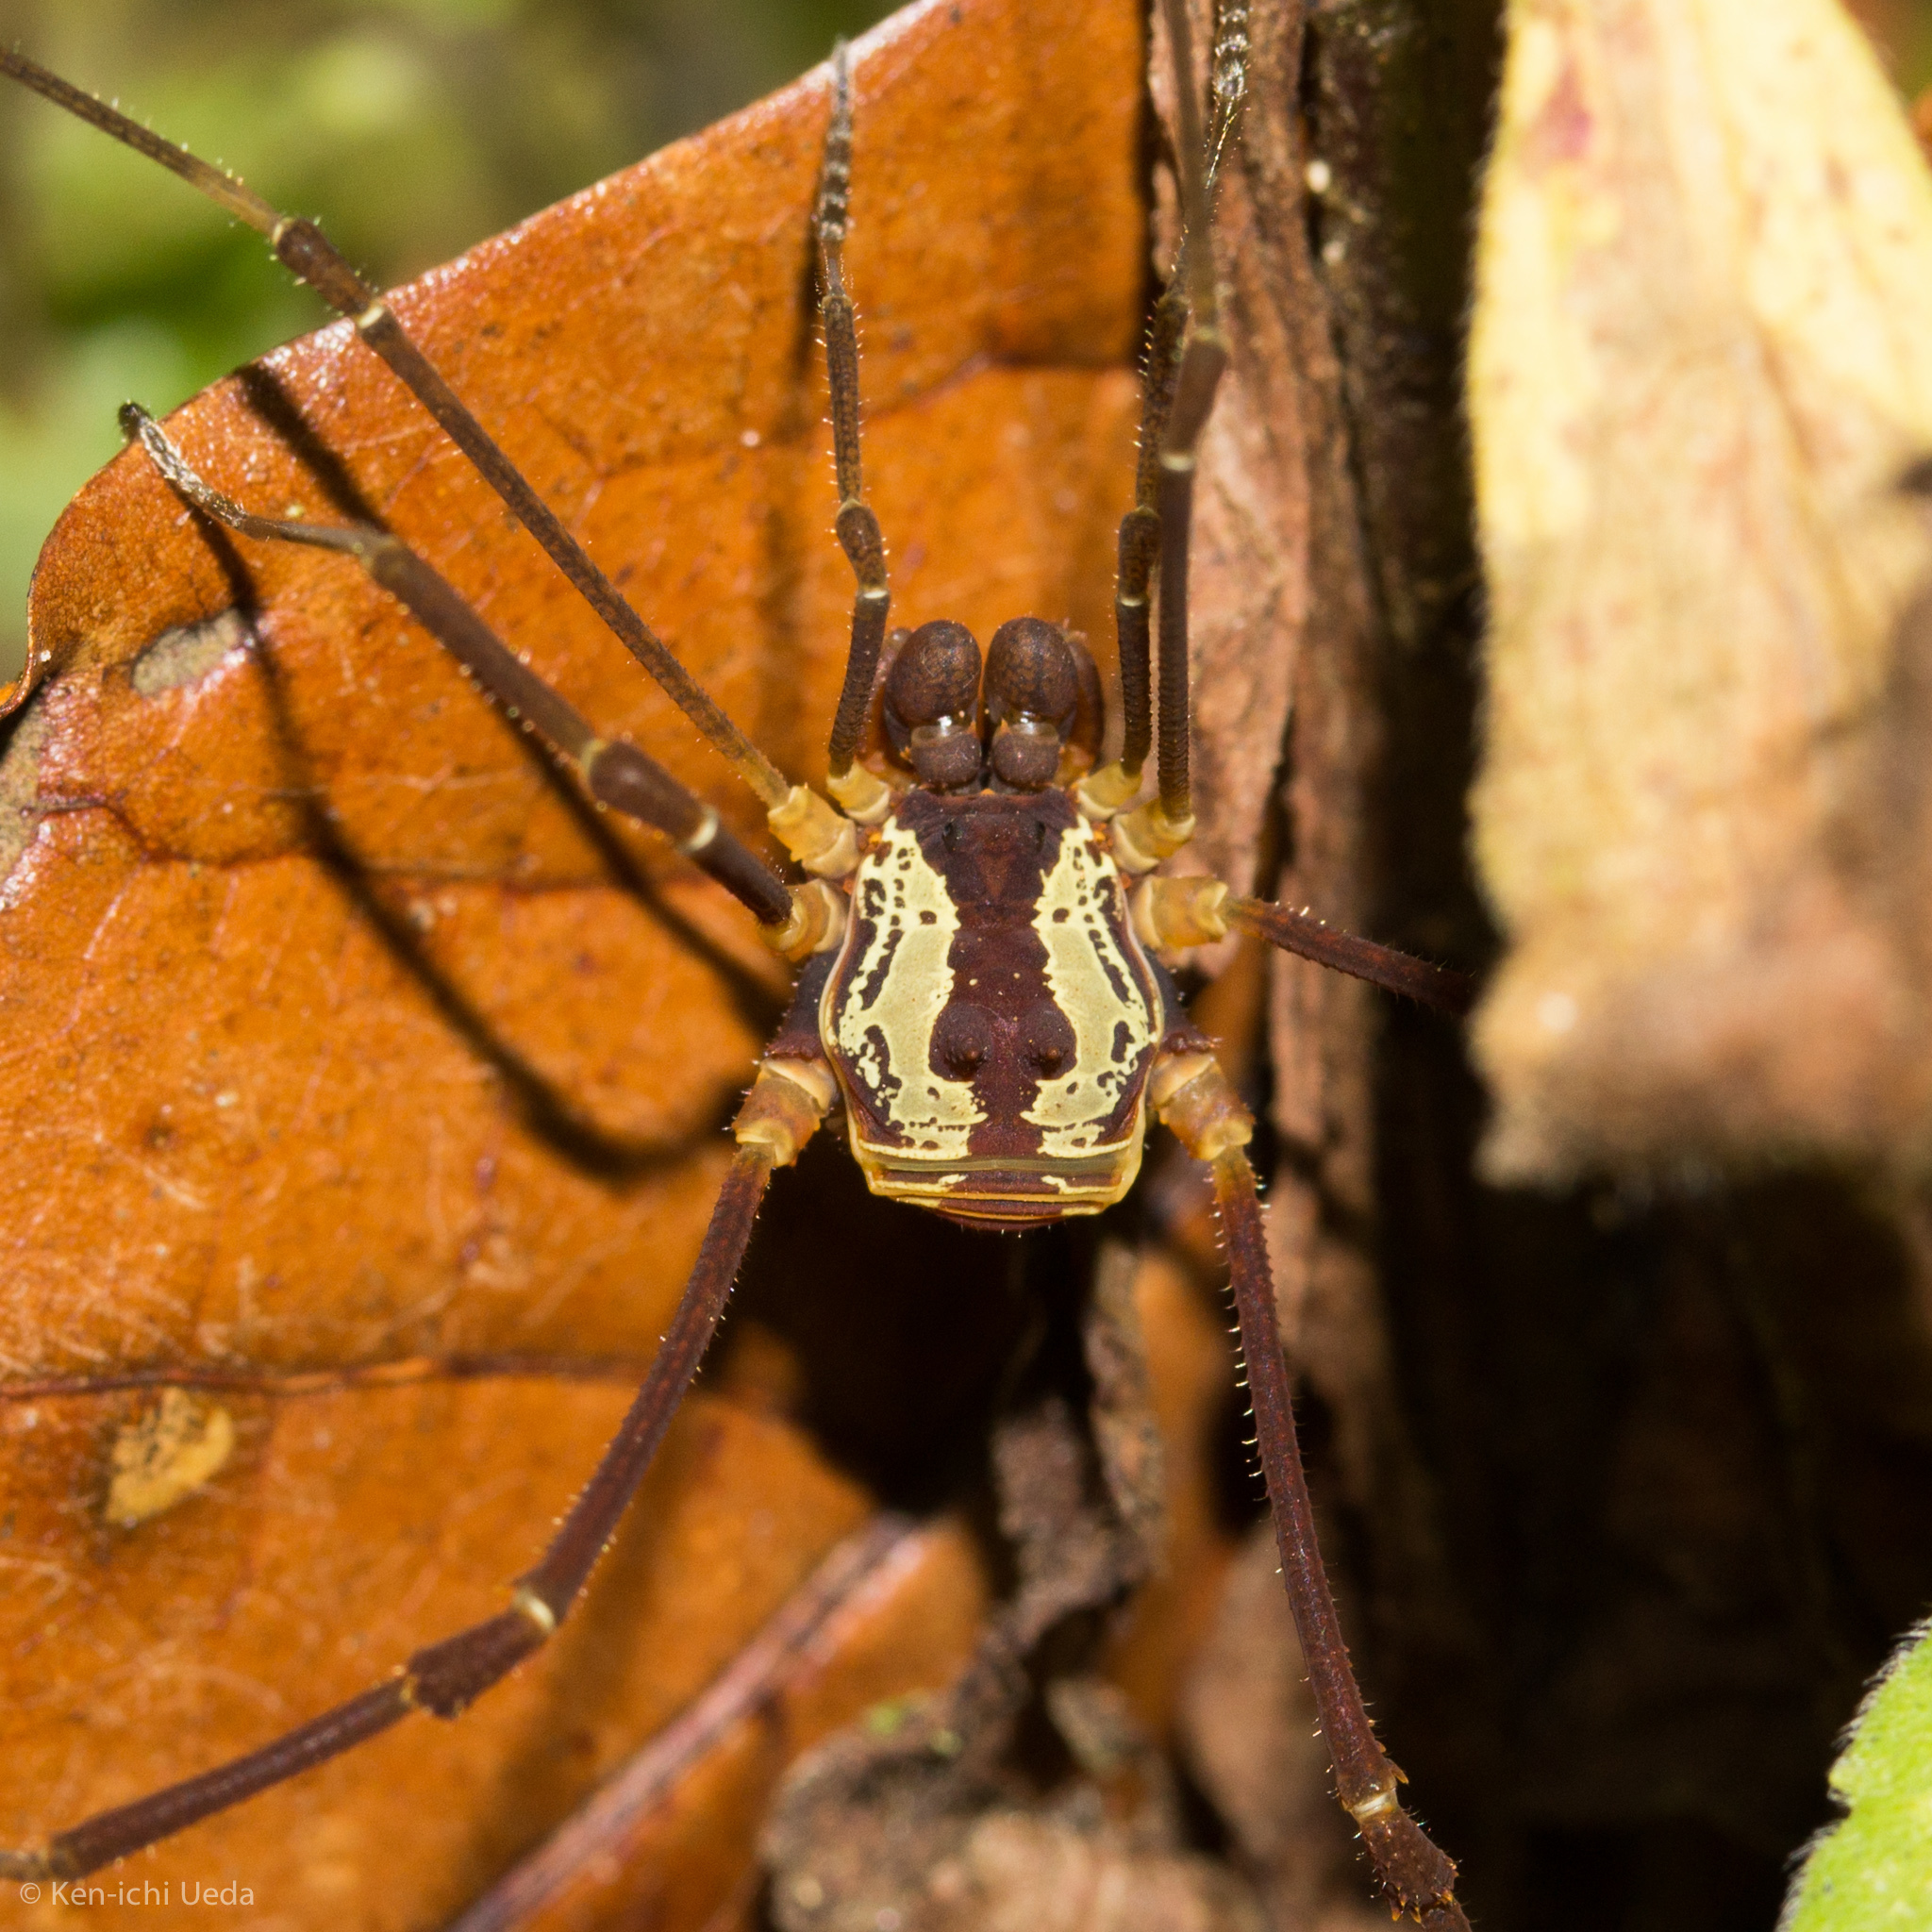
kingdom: Animalia
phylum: Arthropoda
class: Arachnida
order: Opiliones
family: Cosmetidae
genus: Meterginus
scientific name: Meterginus togatus
